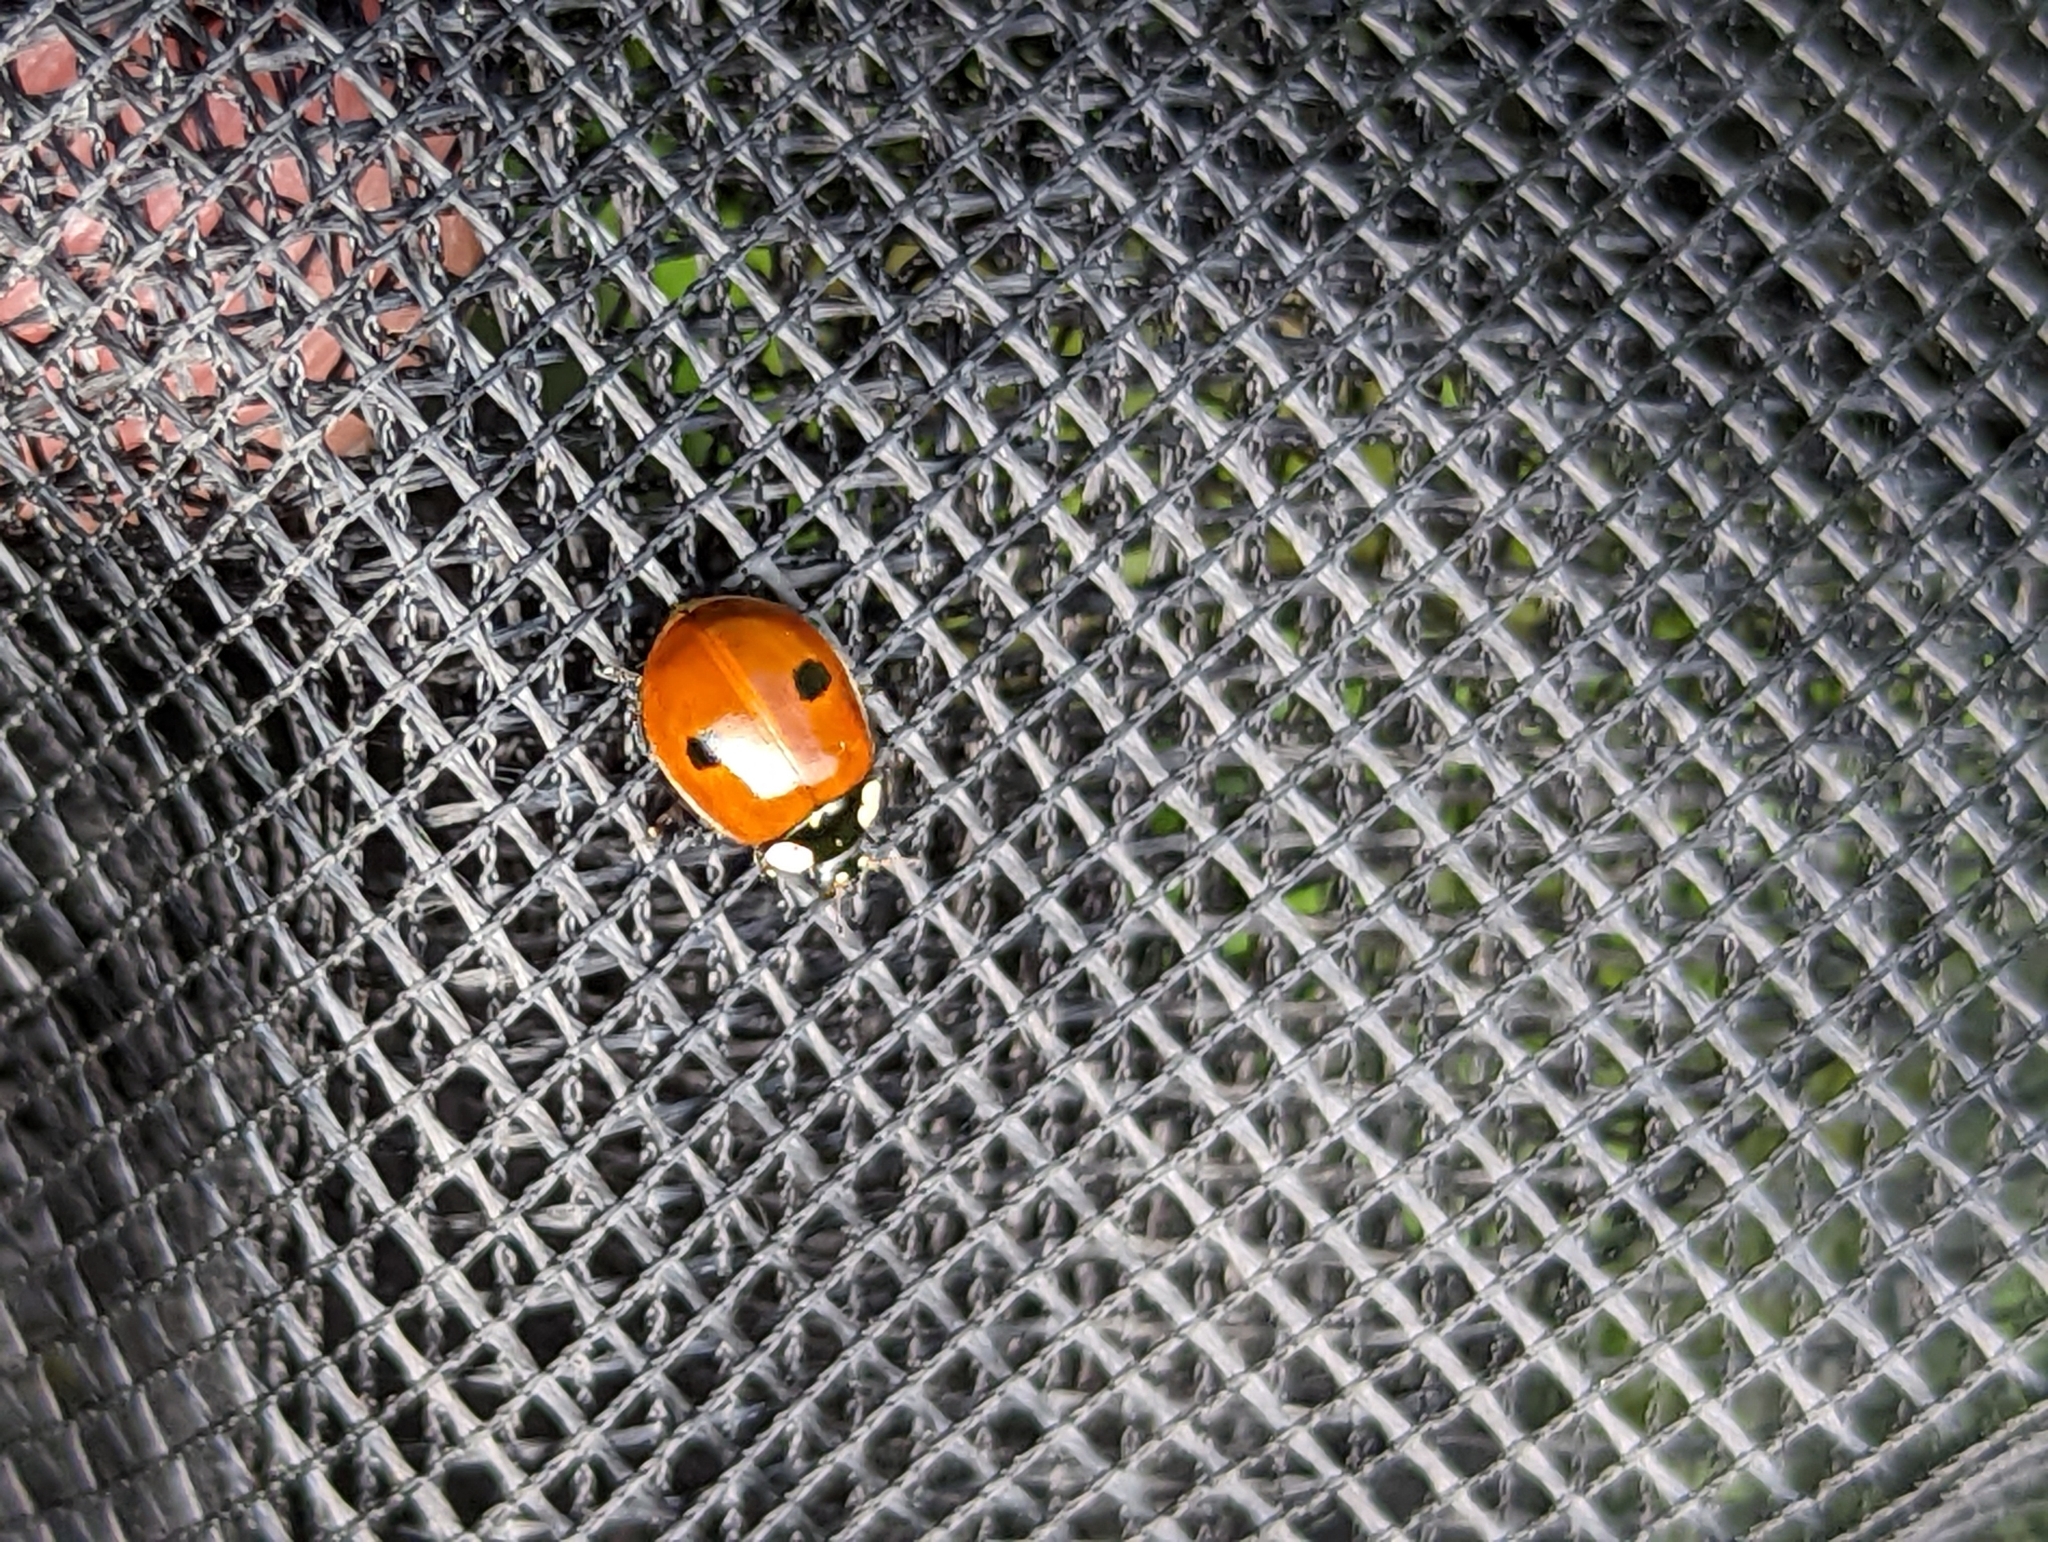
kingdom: Animalia
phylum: Arthropoda
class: Insecta
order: Coleoptera
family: Coccinellidae
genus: Adalia
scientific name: Adalia bipunctata
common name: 2-spot ladybird
